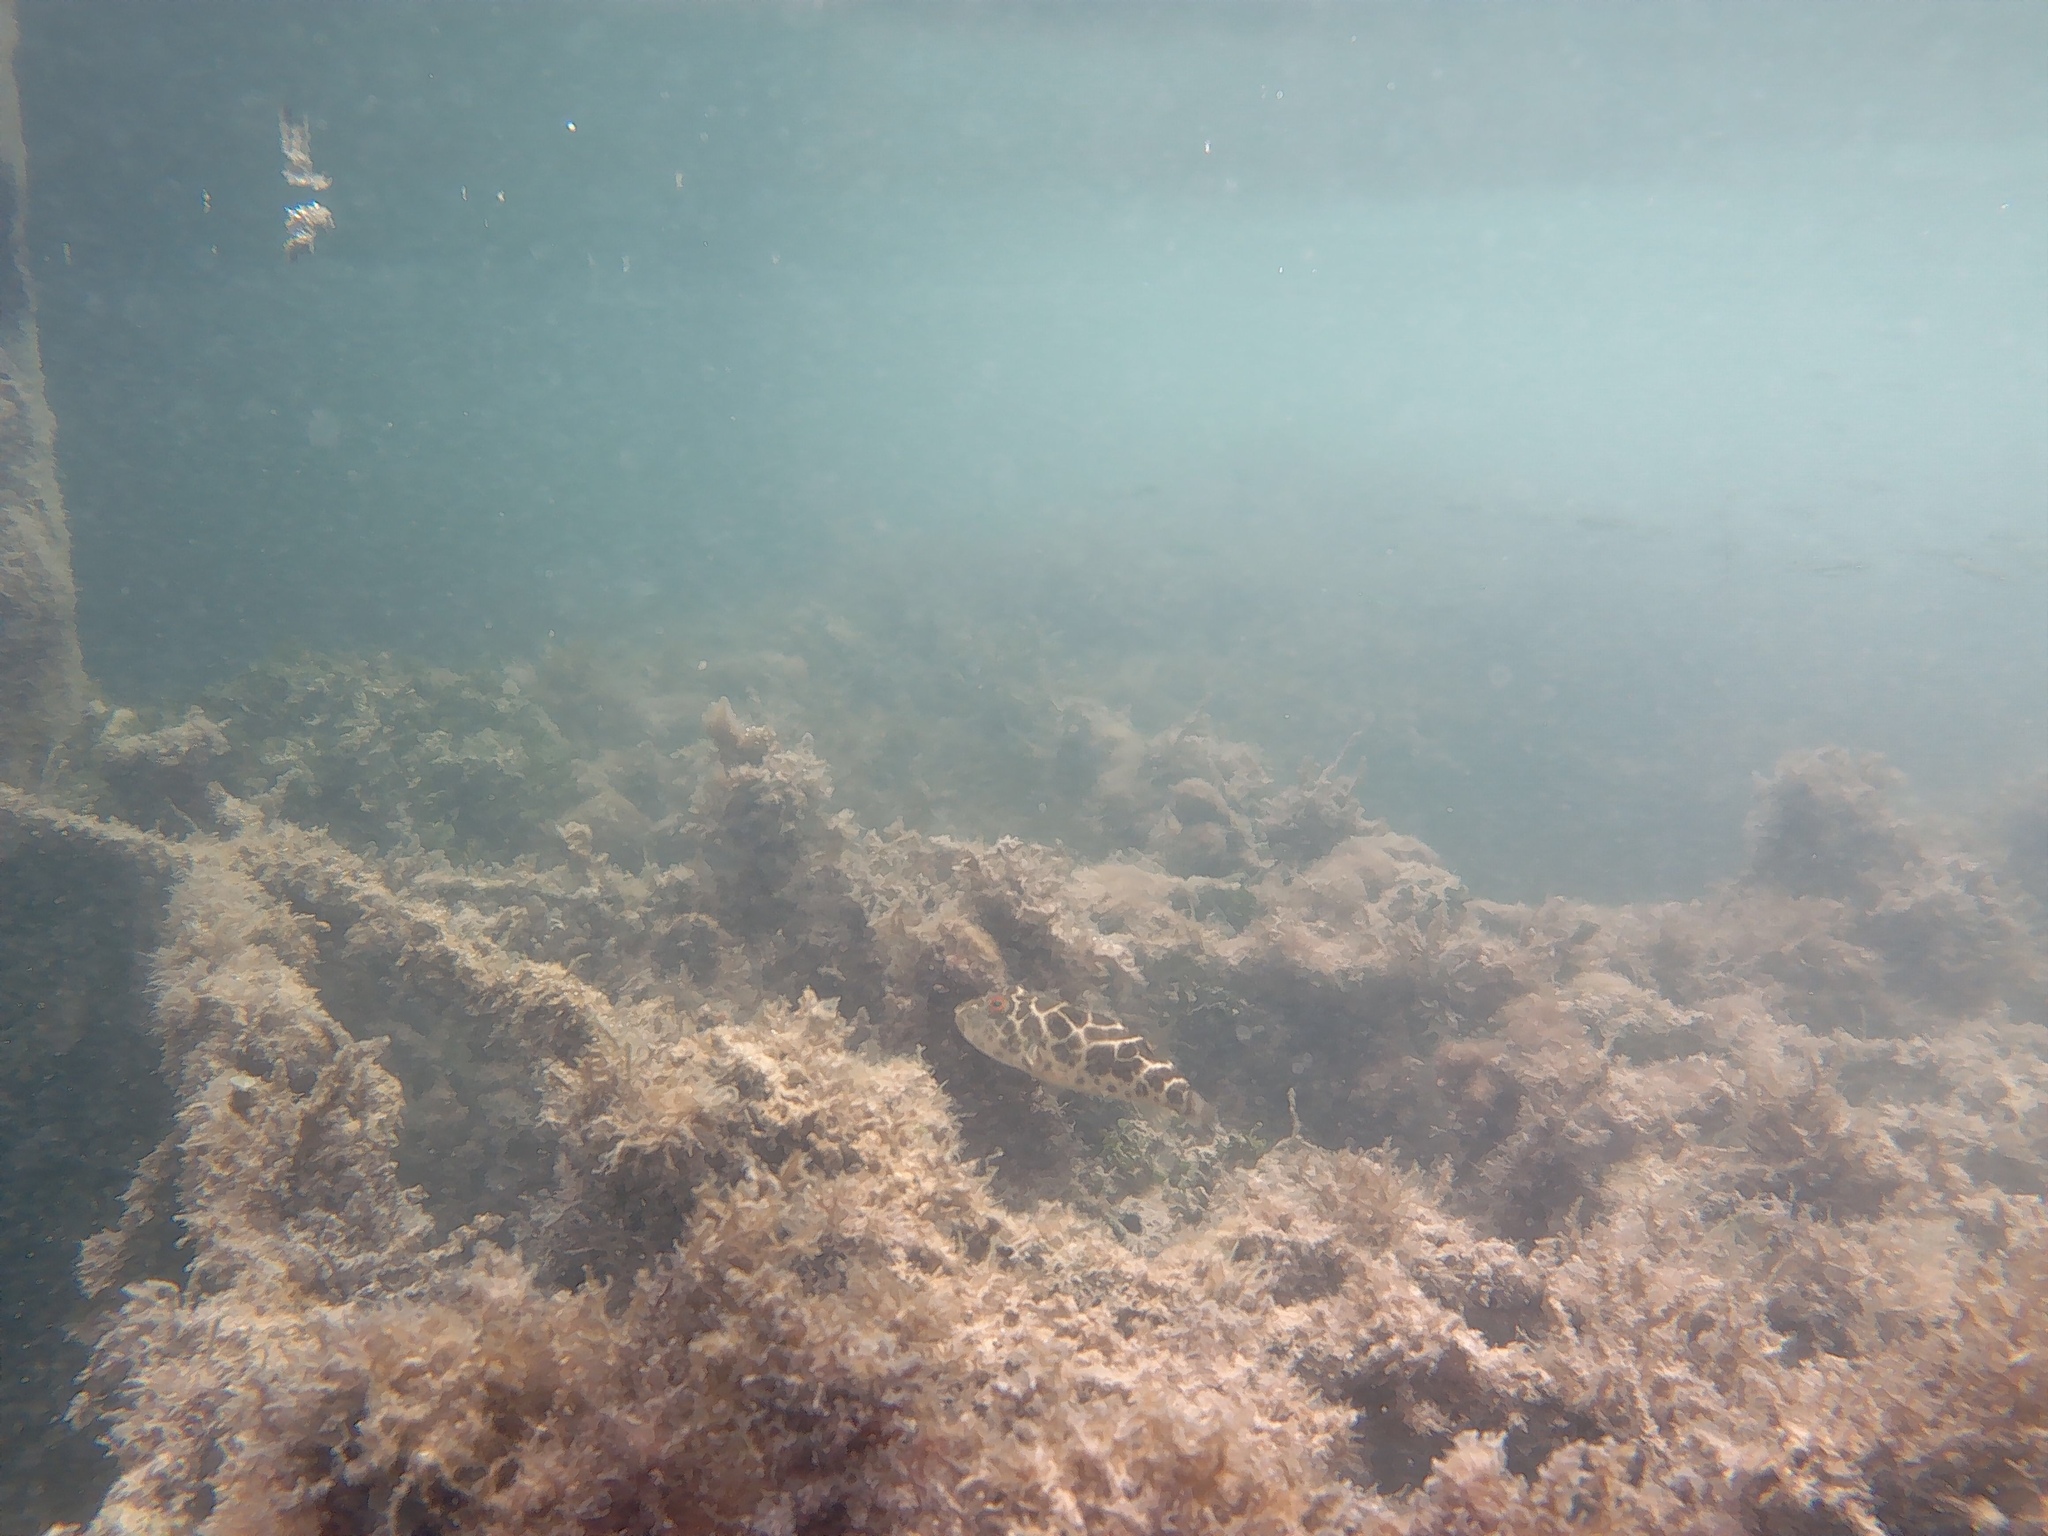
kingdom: Animalia
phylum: Chordata
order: Tetraodontiformes
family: Tetraodontidae
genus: Sphoeroides
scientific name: Sphoeroides testudineus
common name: Checkered puffer
